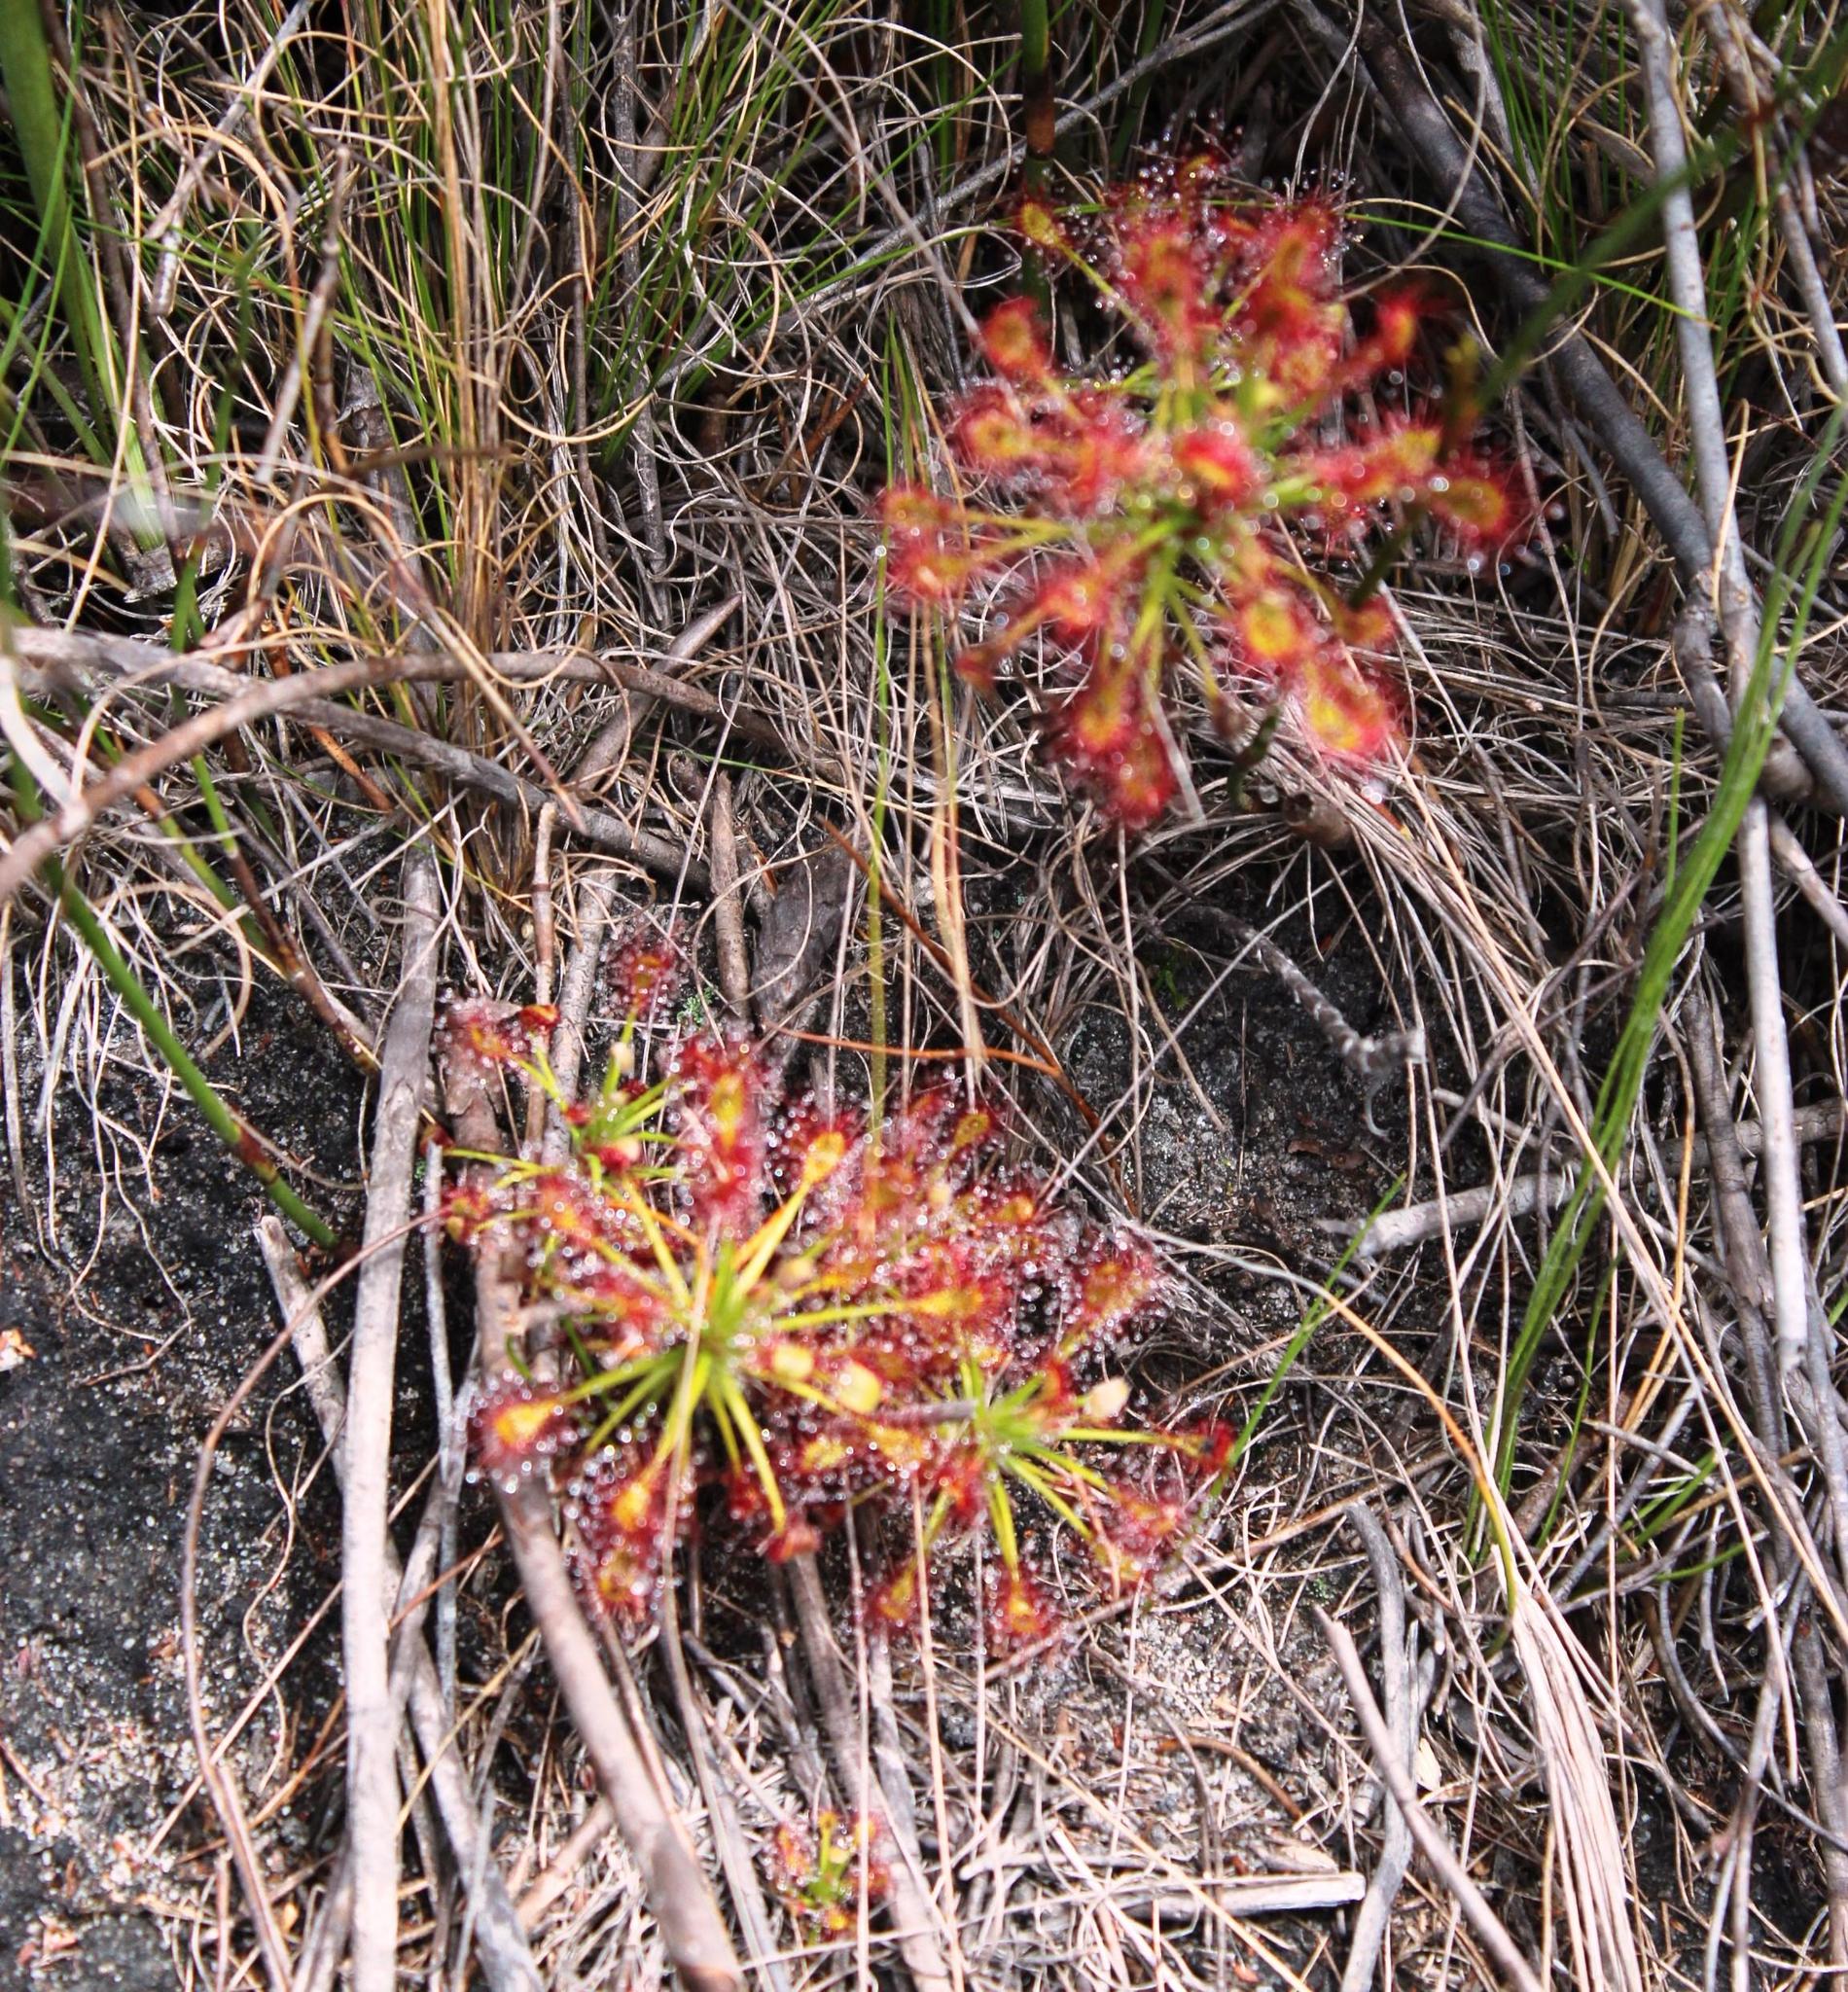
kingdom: Plantae
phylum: Tracheophyta
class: Magnoliopsida
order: Caryophyllales
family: Droseraceae
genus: Drosera
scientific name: Drosera glabripes
